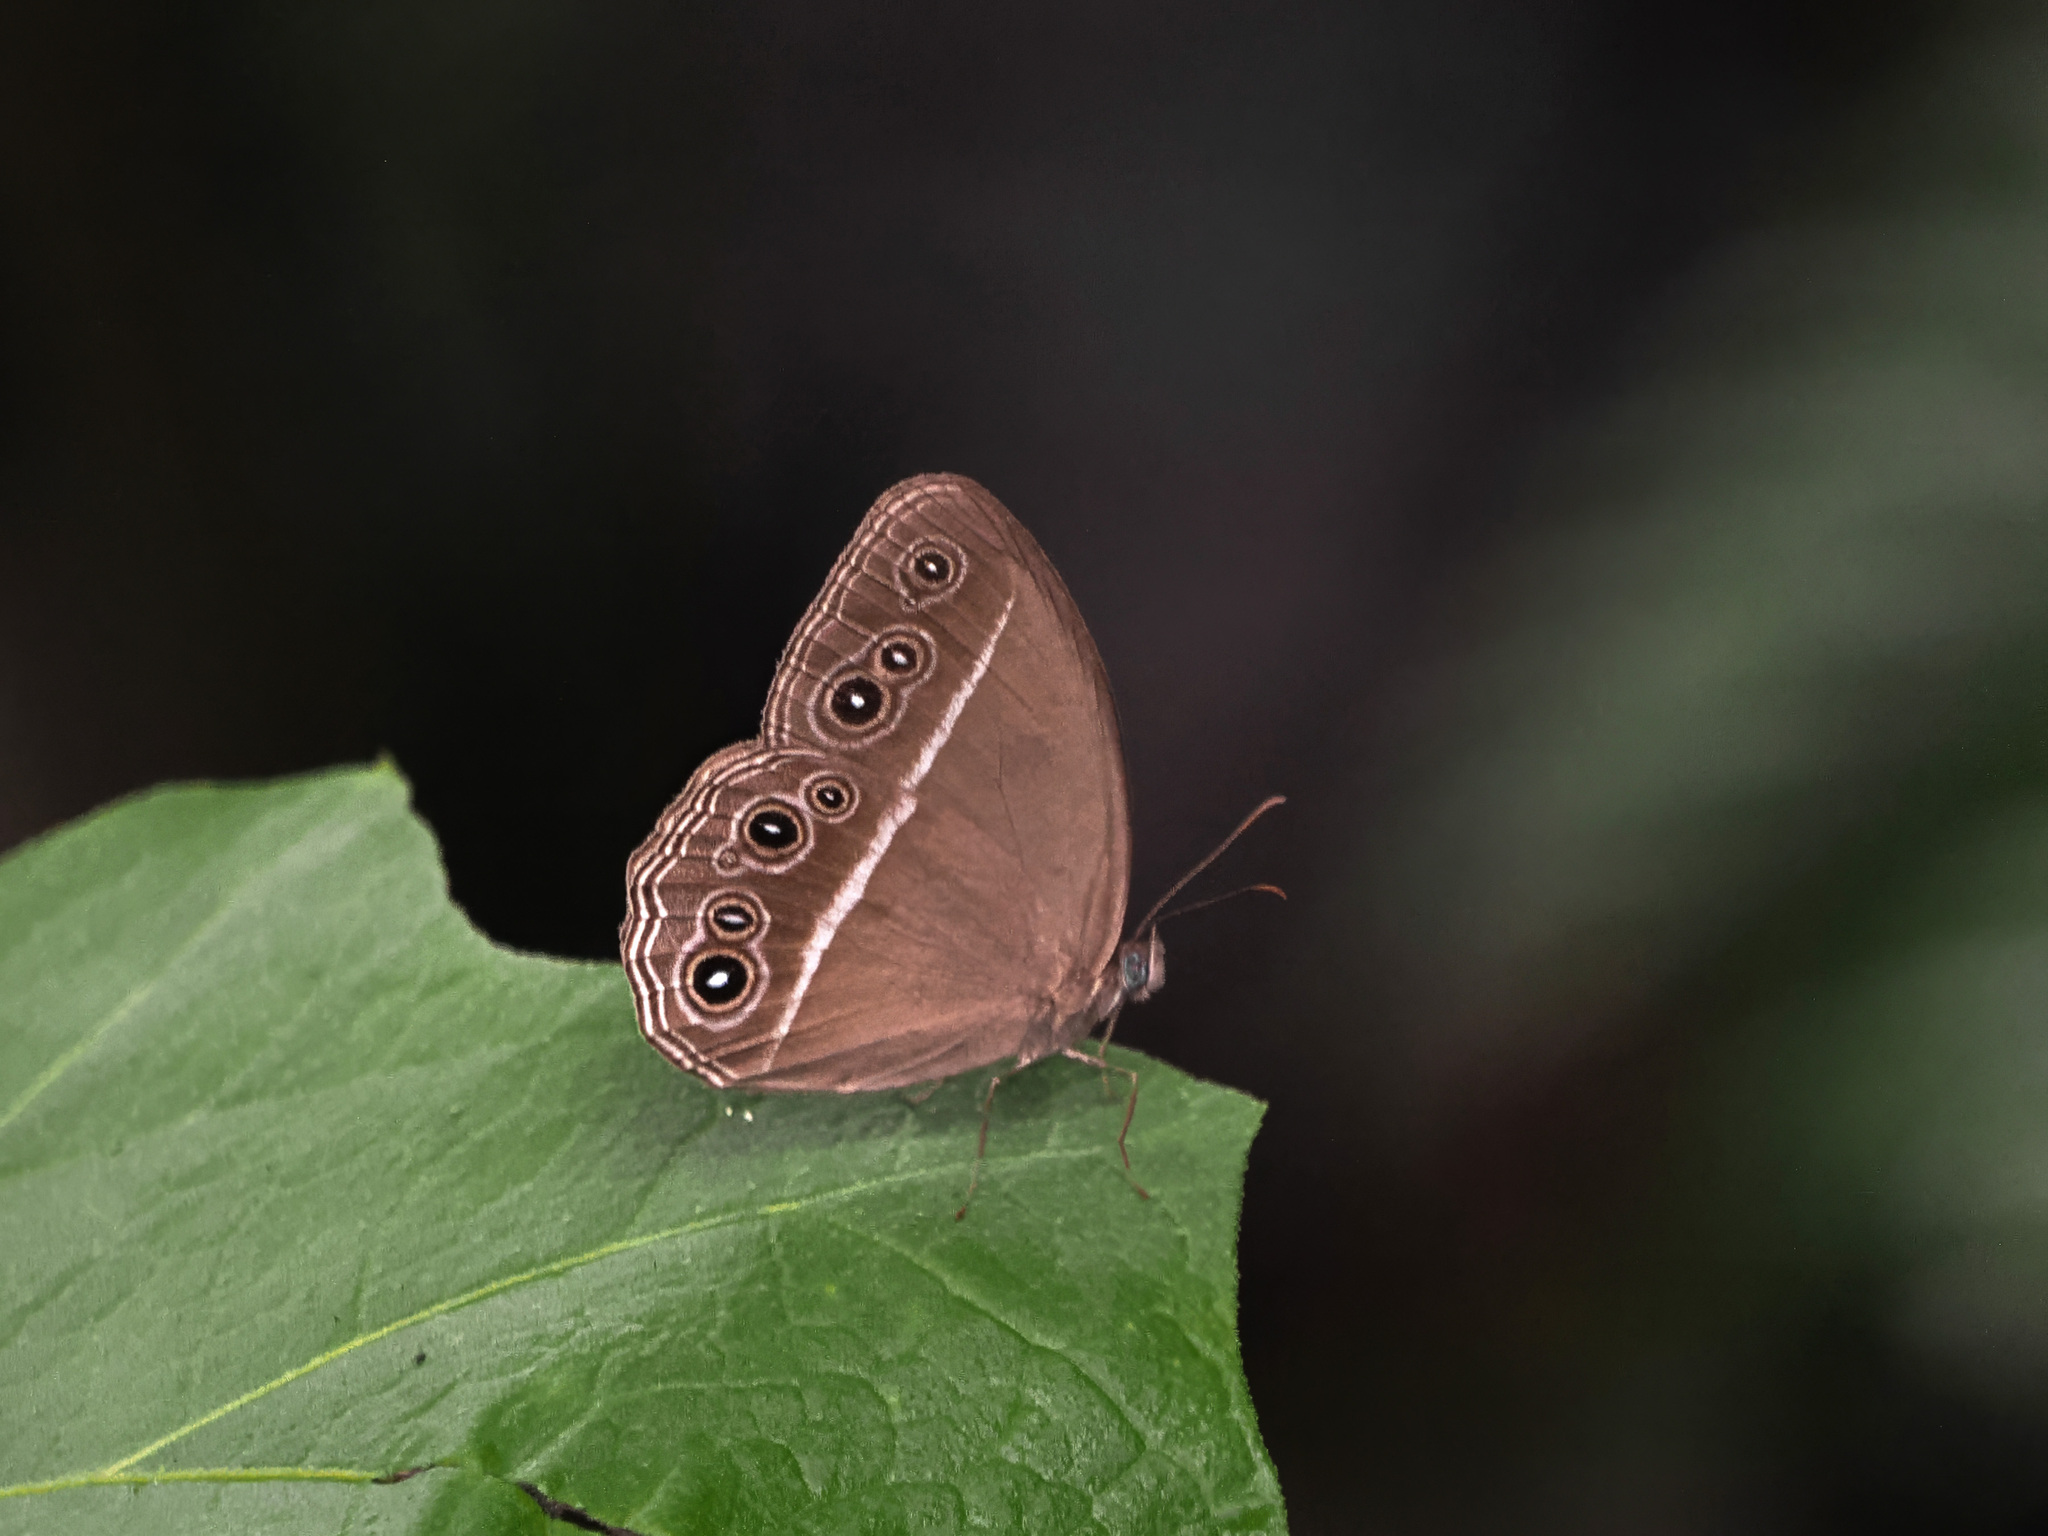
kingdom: Animalia
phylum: Arthropoda
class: Insecta
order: Lepidoptera
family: Nymphalidae
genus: Orsotriaena
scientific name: Orsotriaena jopas
